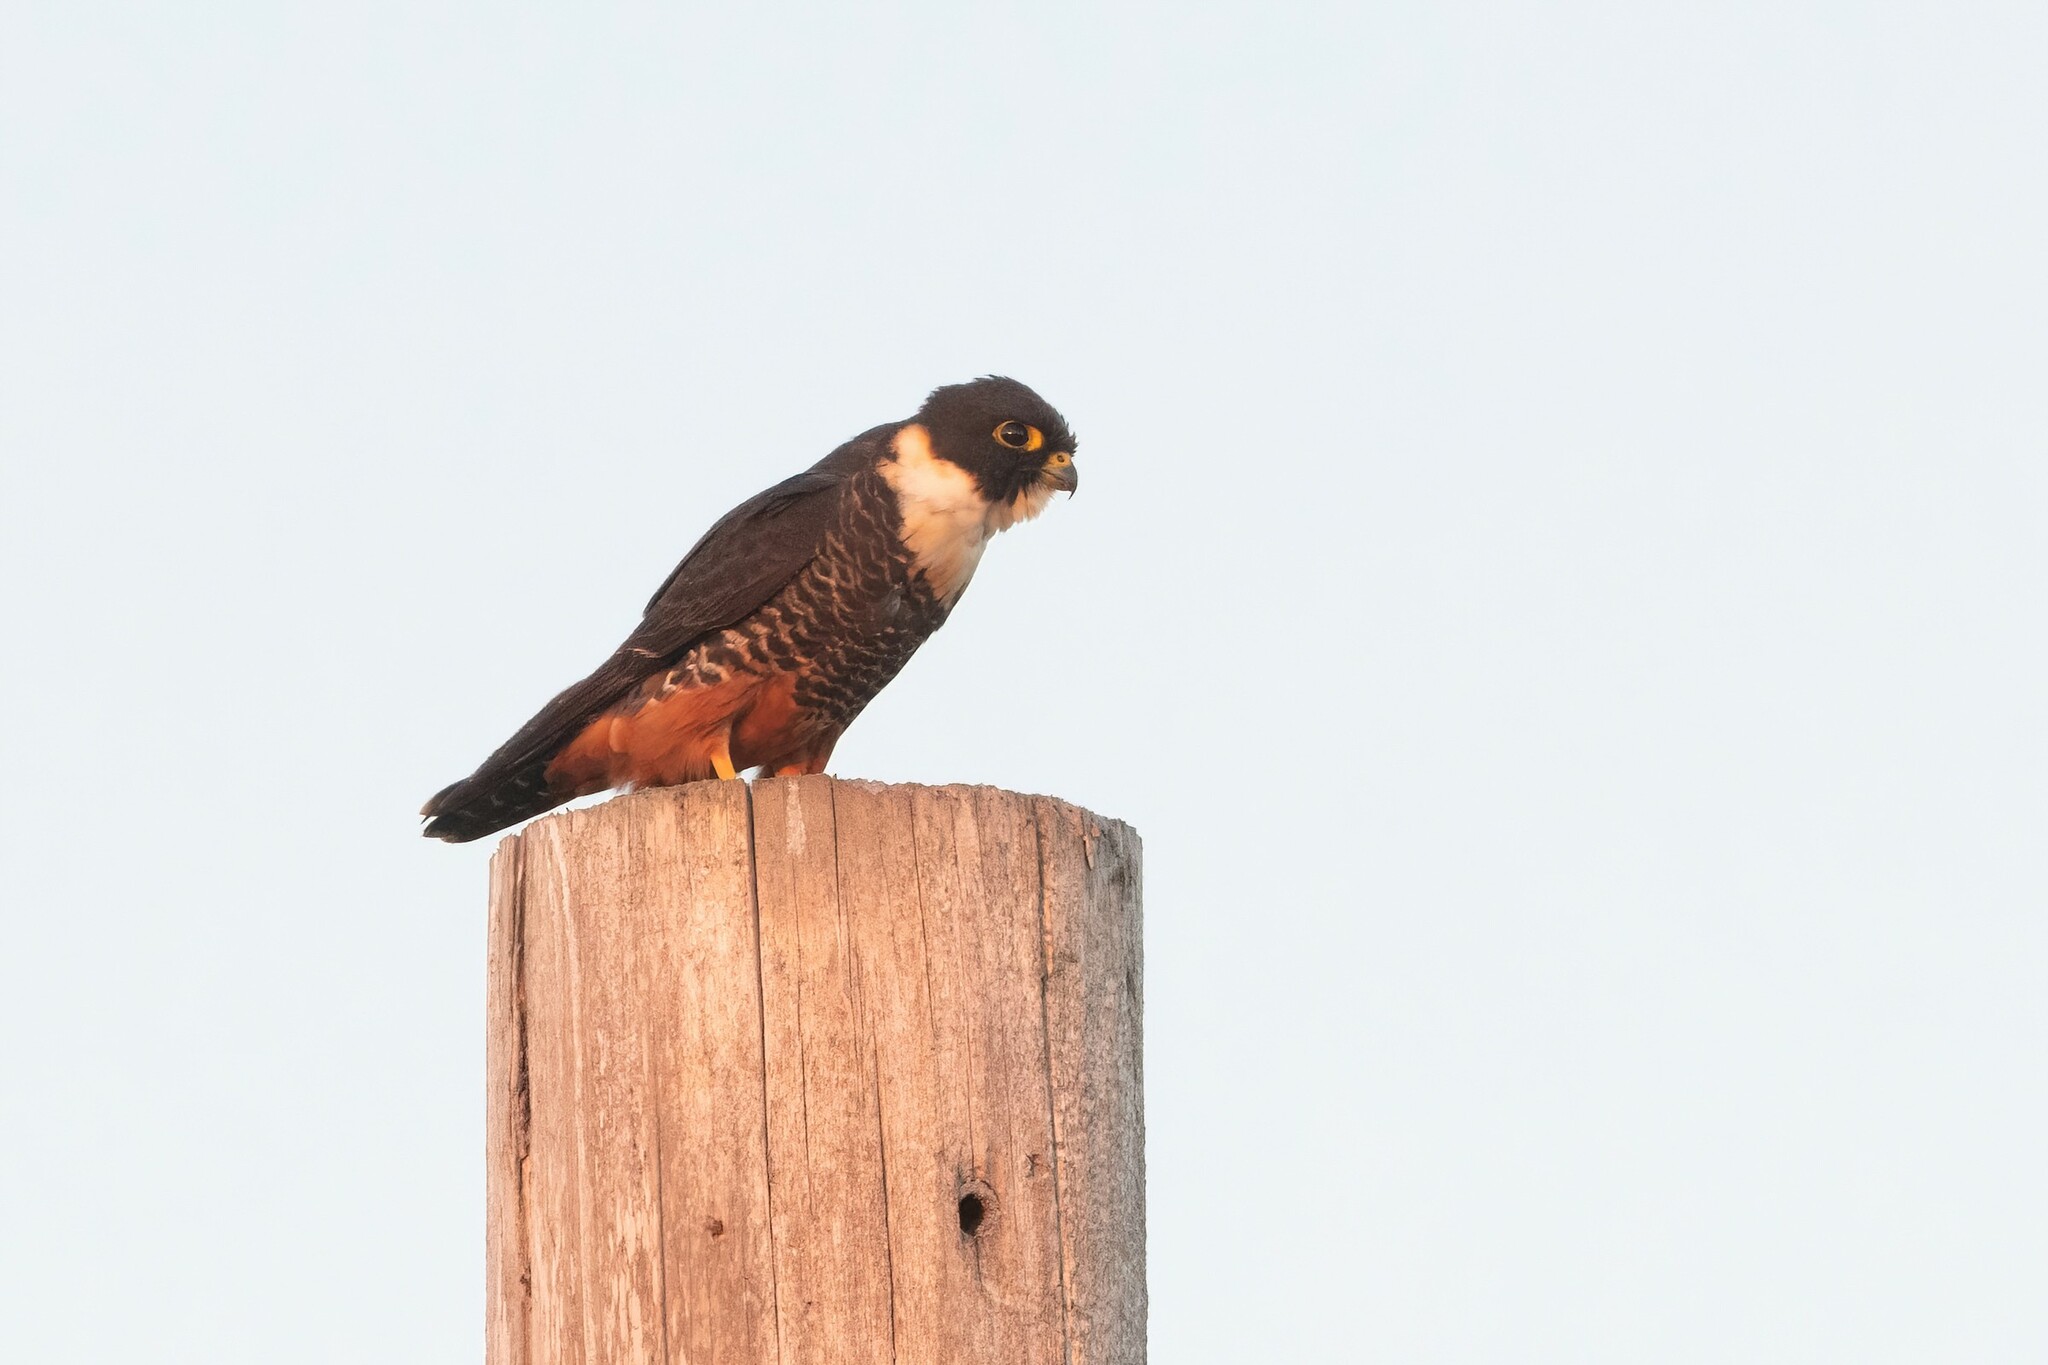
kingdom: Animalia
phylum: Chordata
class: Aves
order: Falconiformes
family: Falconidae
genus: Falco
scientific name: Falco rufigularis
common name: Bat falcon
